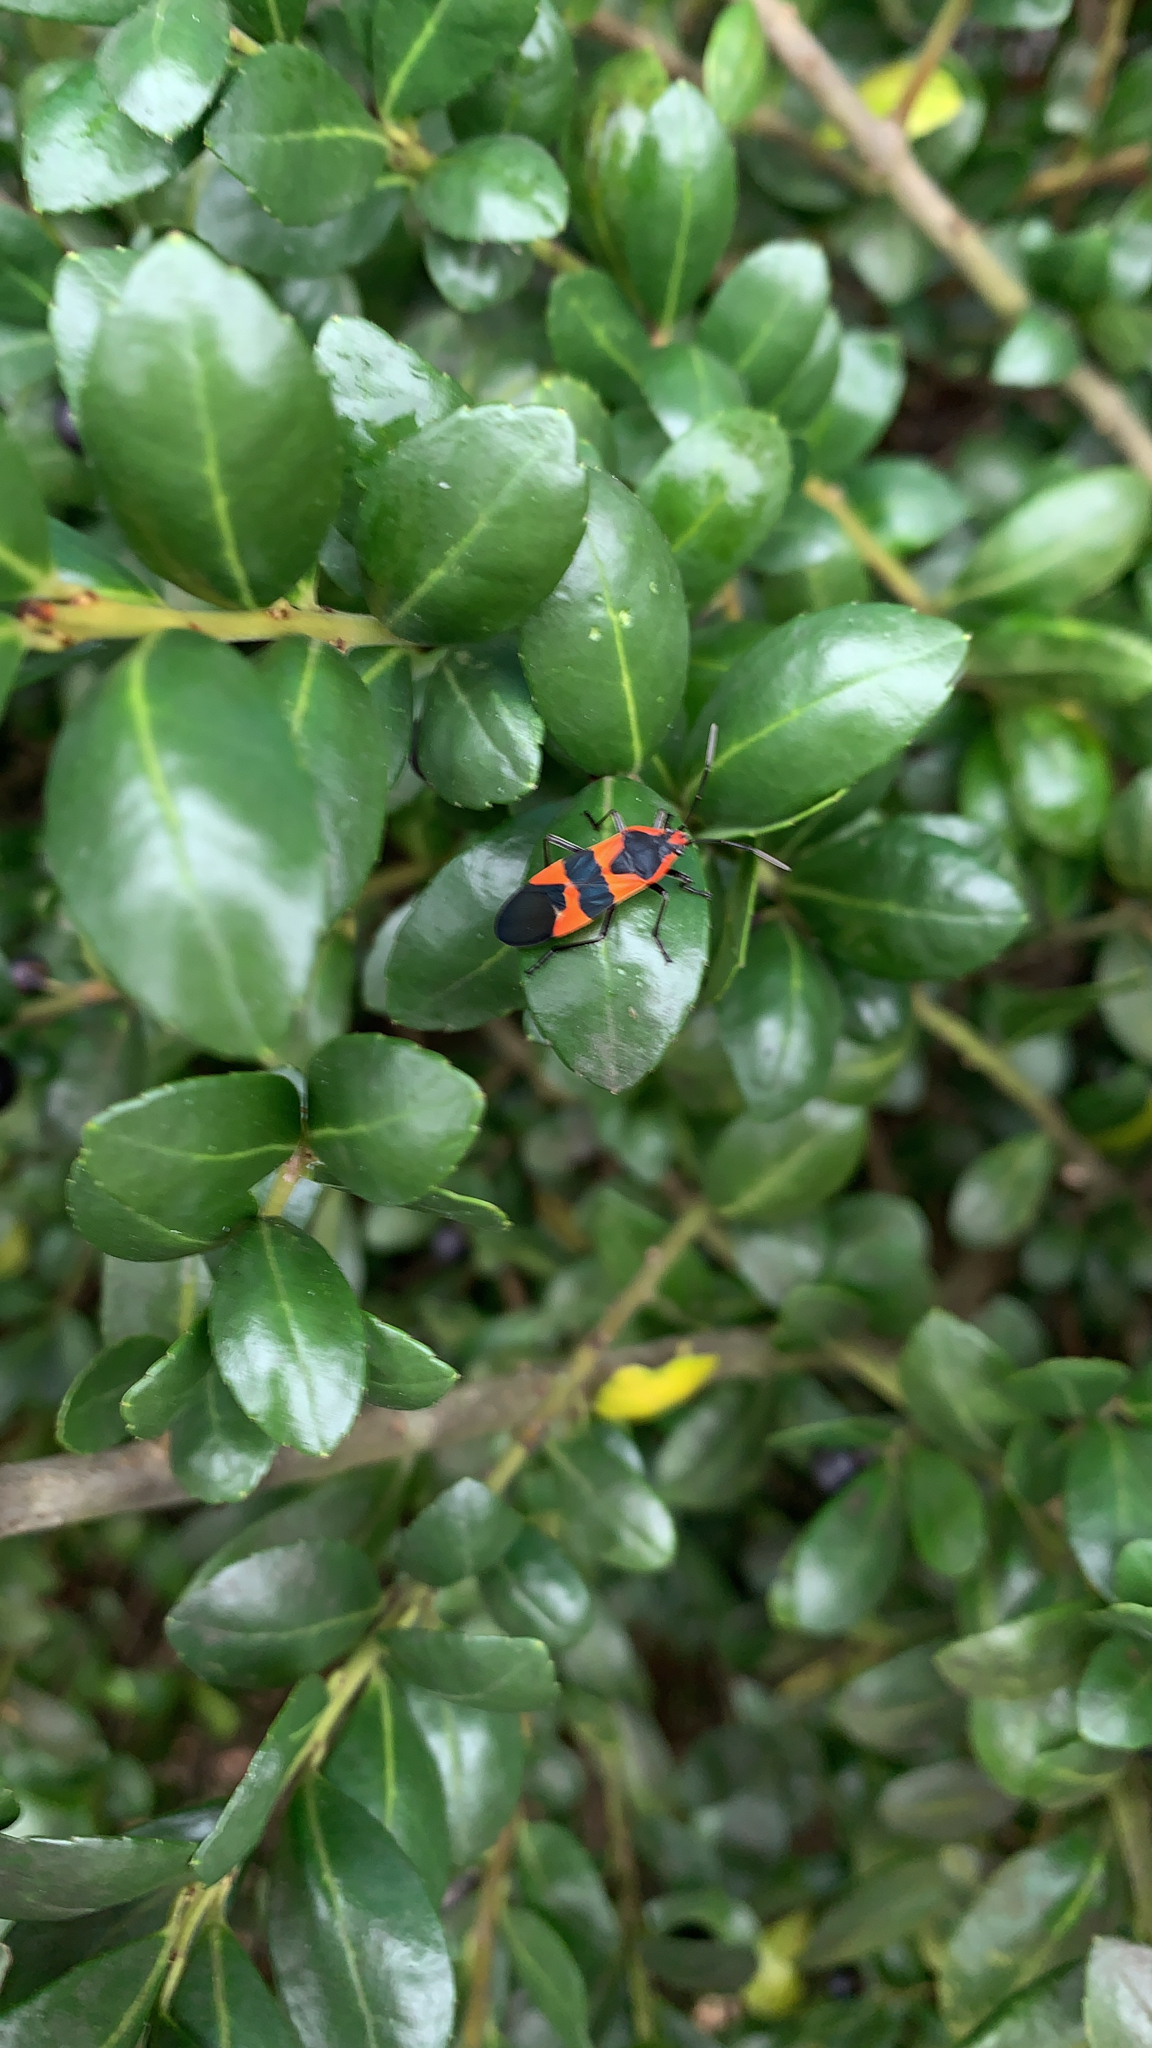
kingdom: Animalia
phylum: Arthropoda
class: Insecta
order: Hemiptera
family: Lygaeidae
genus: Oncopeltus
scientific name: Oncopeltus fasciatus
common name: Large milkweed bug
